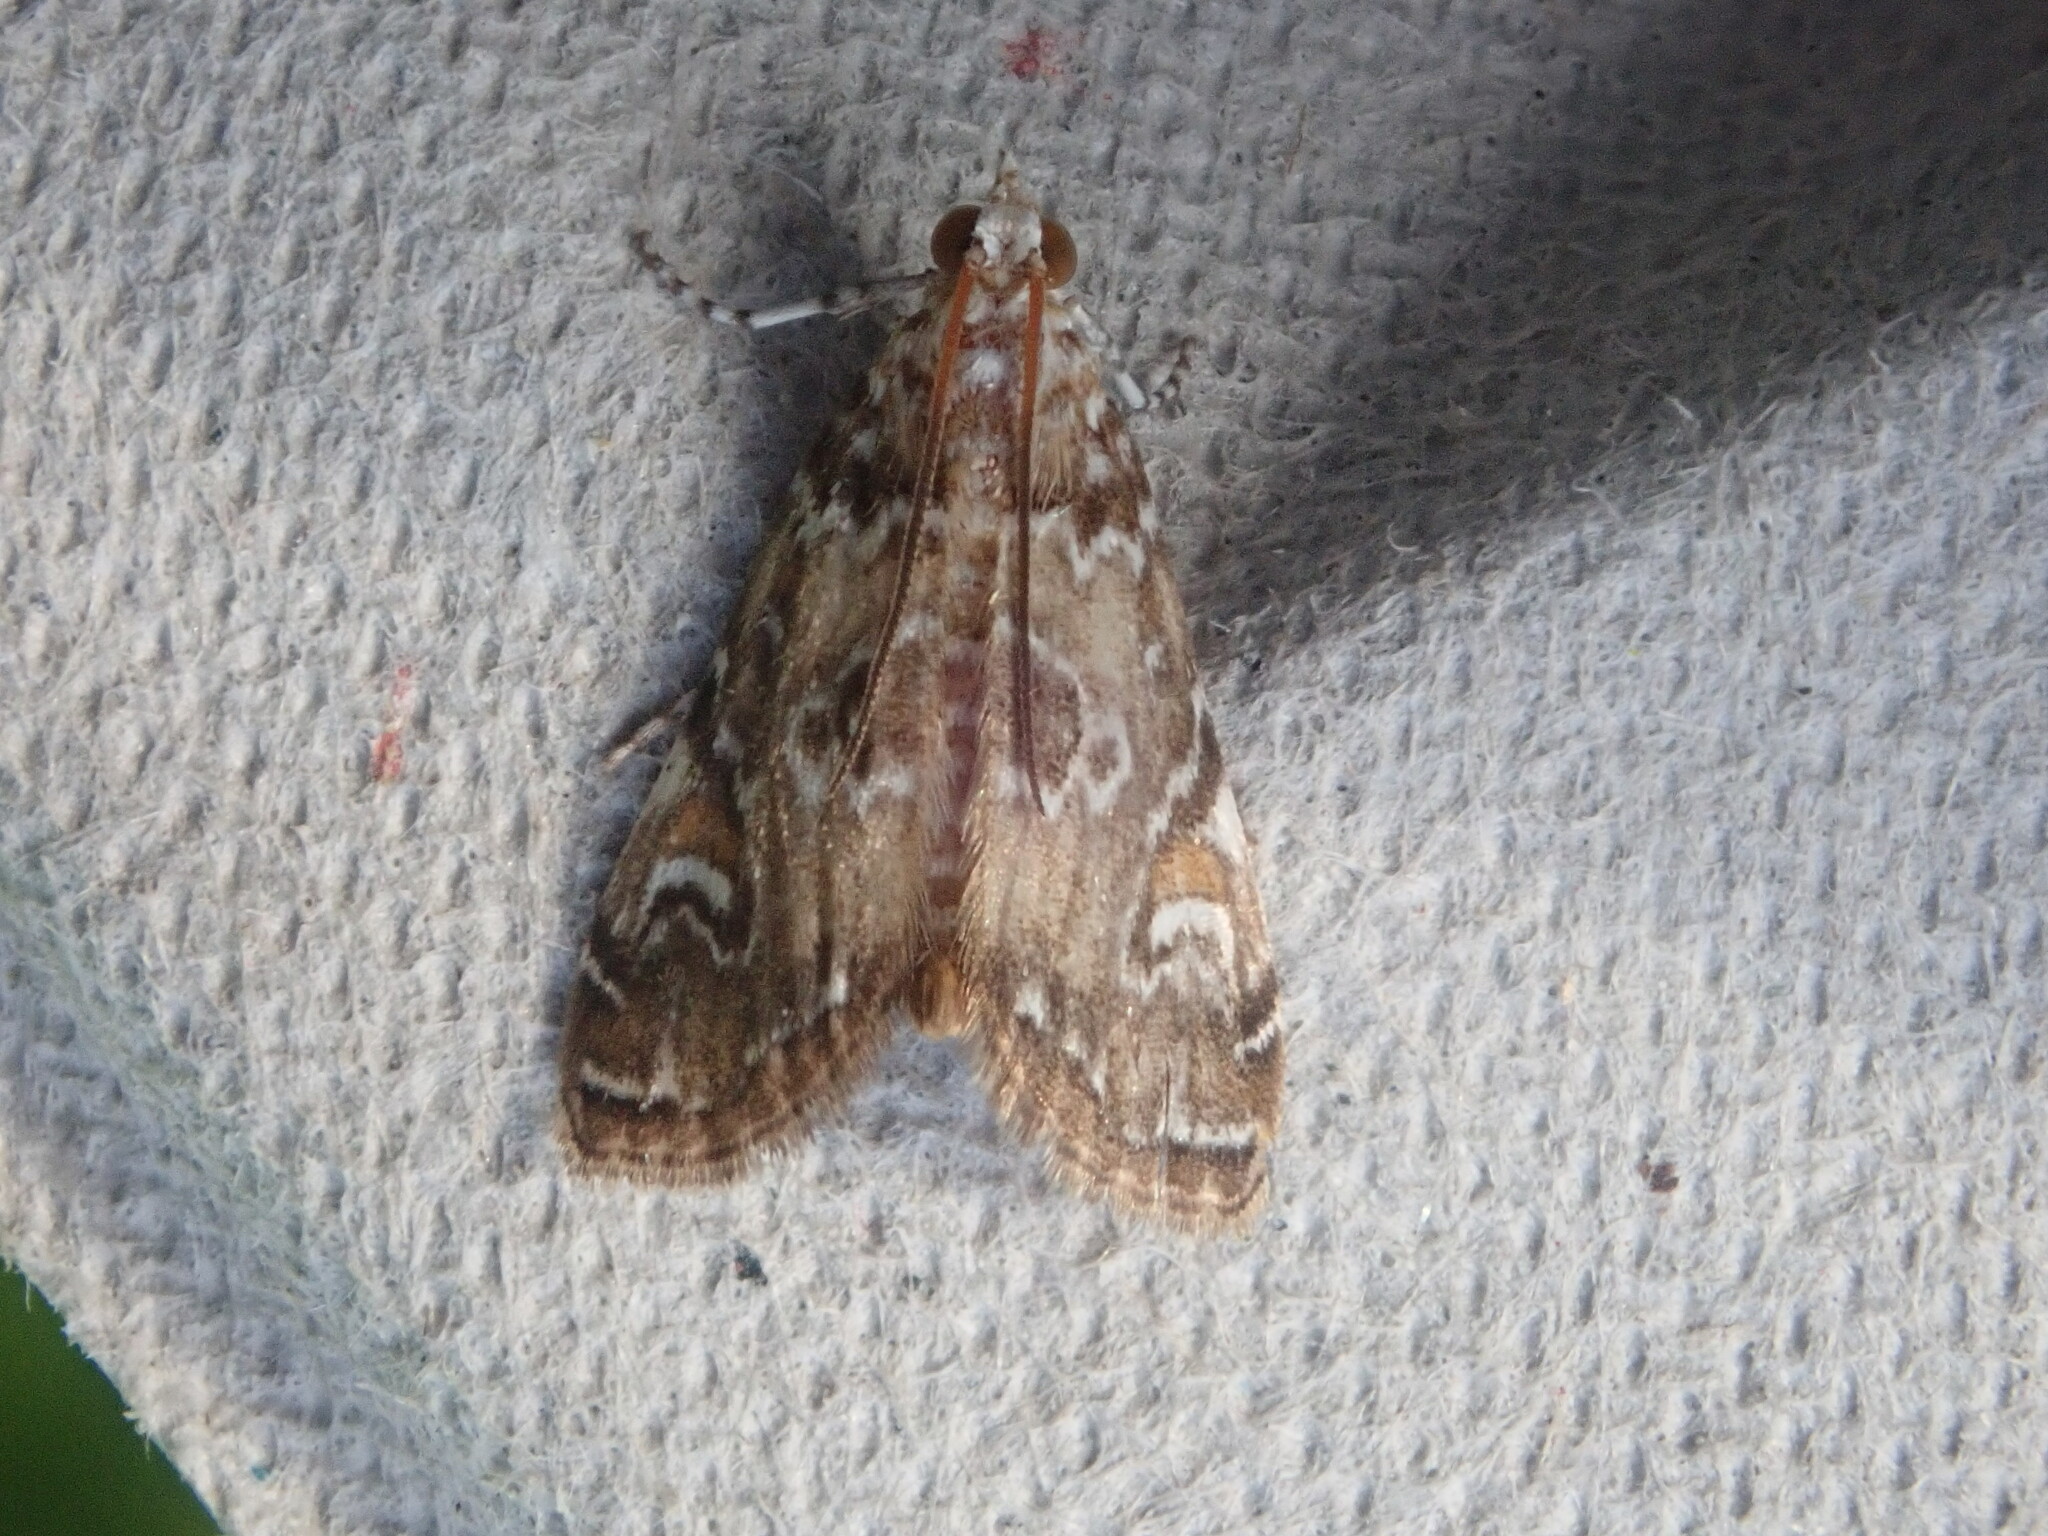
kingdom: Animalia
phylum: Arthropoda
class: Insecta
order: Lepidoptera
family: Crambidae
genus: Elophila
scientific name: Elophila gyralis
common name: Waterlily borer moth
